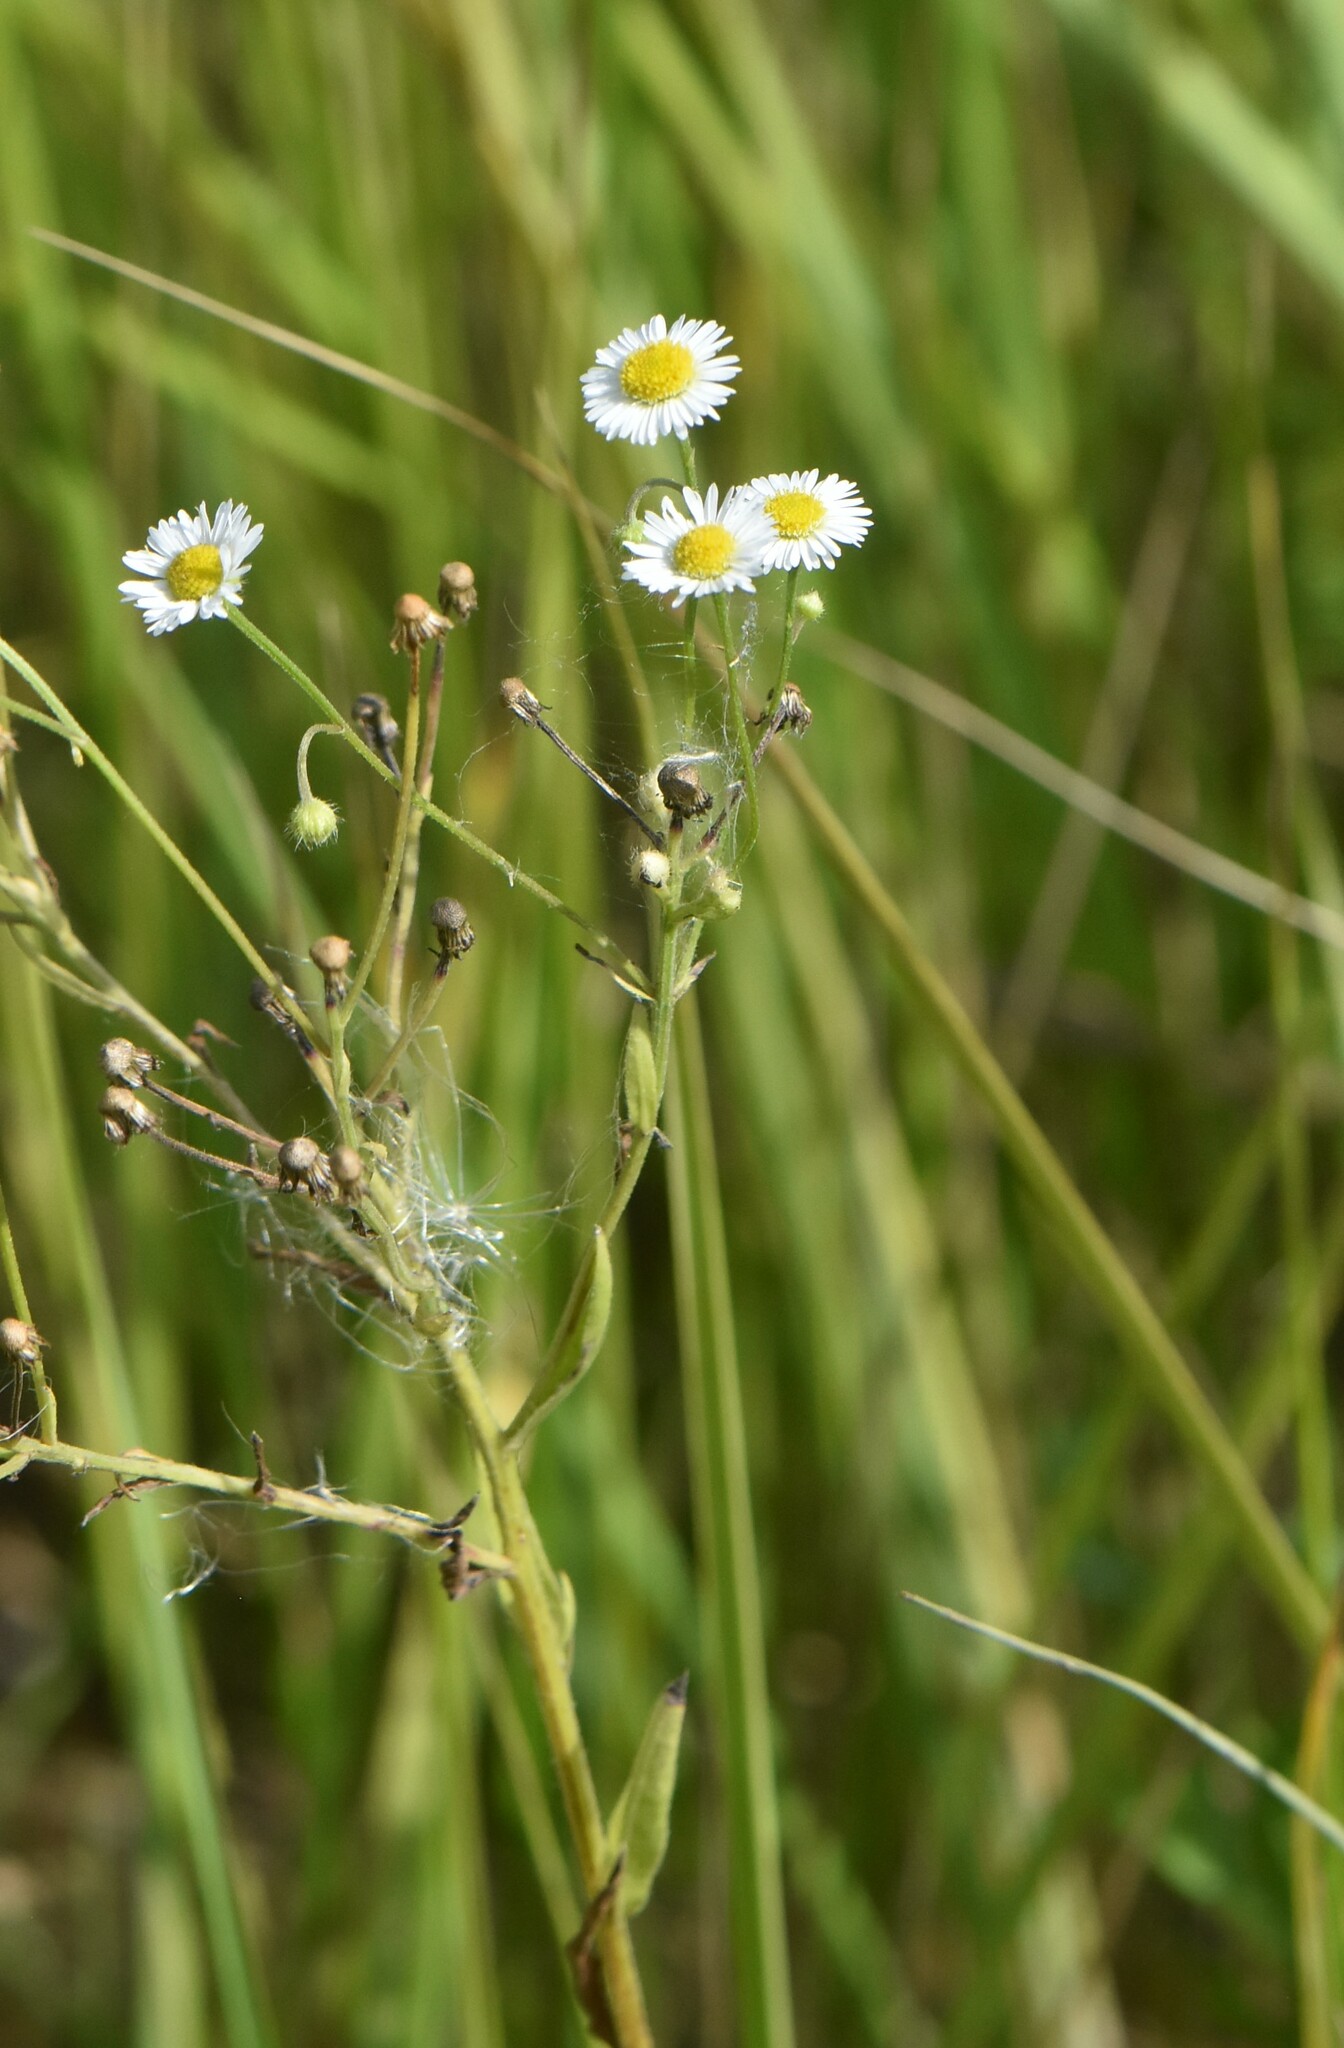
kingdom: Plantae
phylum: Tracheophyta
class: Magnoliopsida
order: Asterales
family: Asteraceae
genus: Erigeron
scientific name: Erigeron strigosus
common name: Common eastern fleabane
